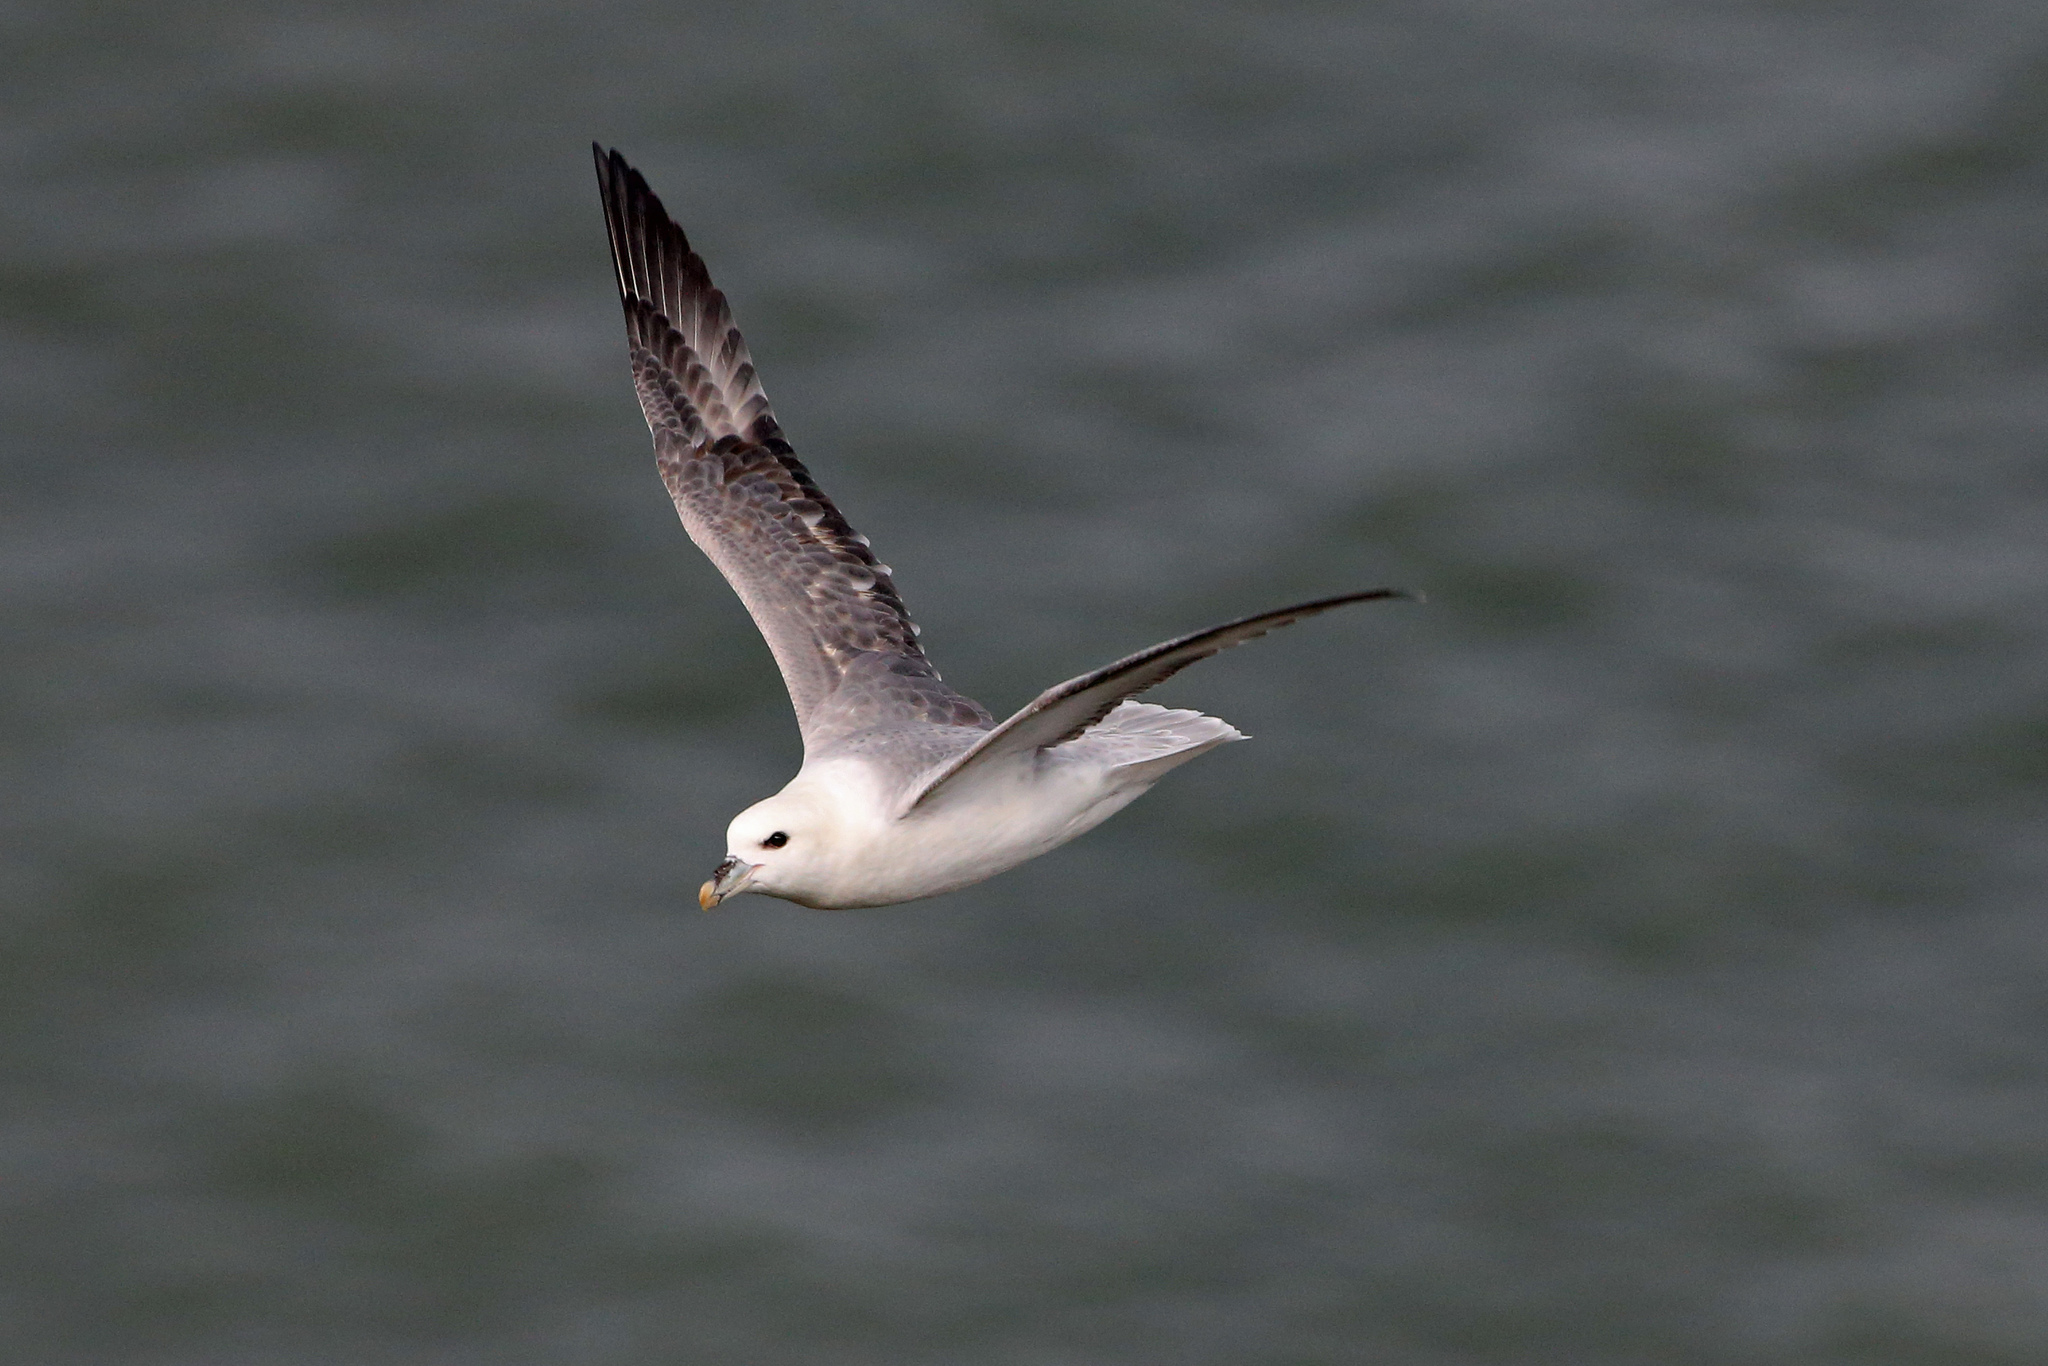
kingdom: Animalia
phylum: Chordata
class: Aves
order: Procellariiformes
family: Procellariidae
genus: Fulmarus
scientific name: Fulmarus glacialis
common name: Northern fulmar
